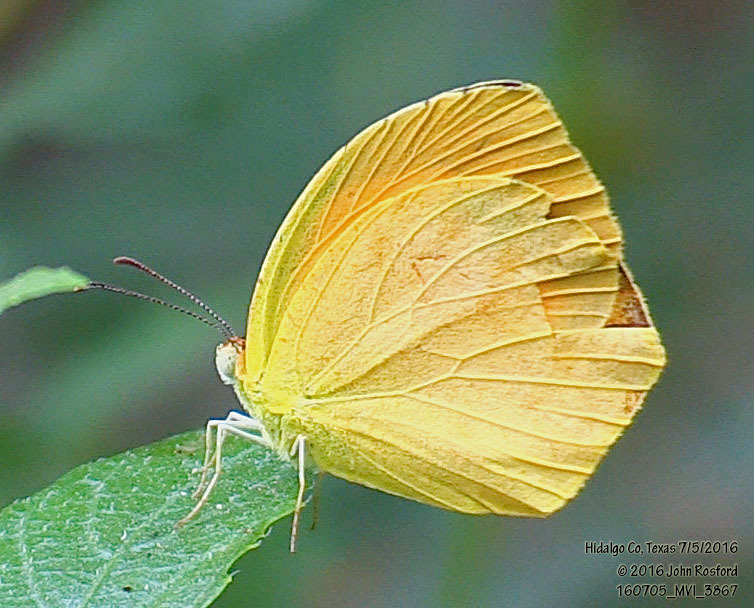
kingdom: Animalia
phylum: Arthropoda
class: Insecta
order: Lepidoptera
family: Pieridae
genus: Pyrisitia
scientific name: Pyrisitia proterpia
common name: Tailed orange
